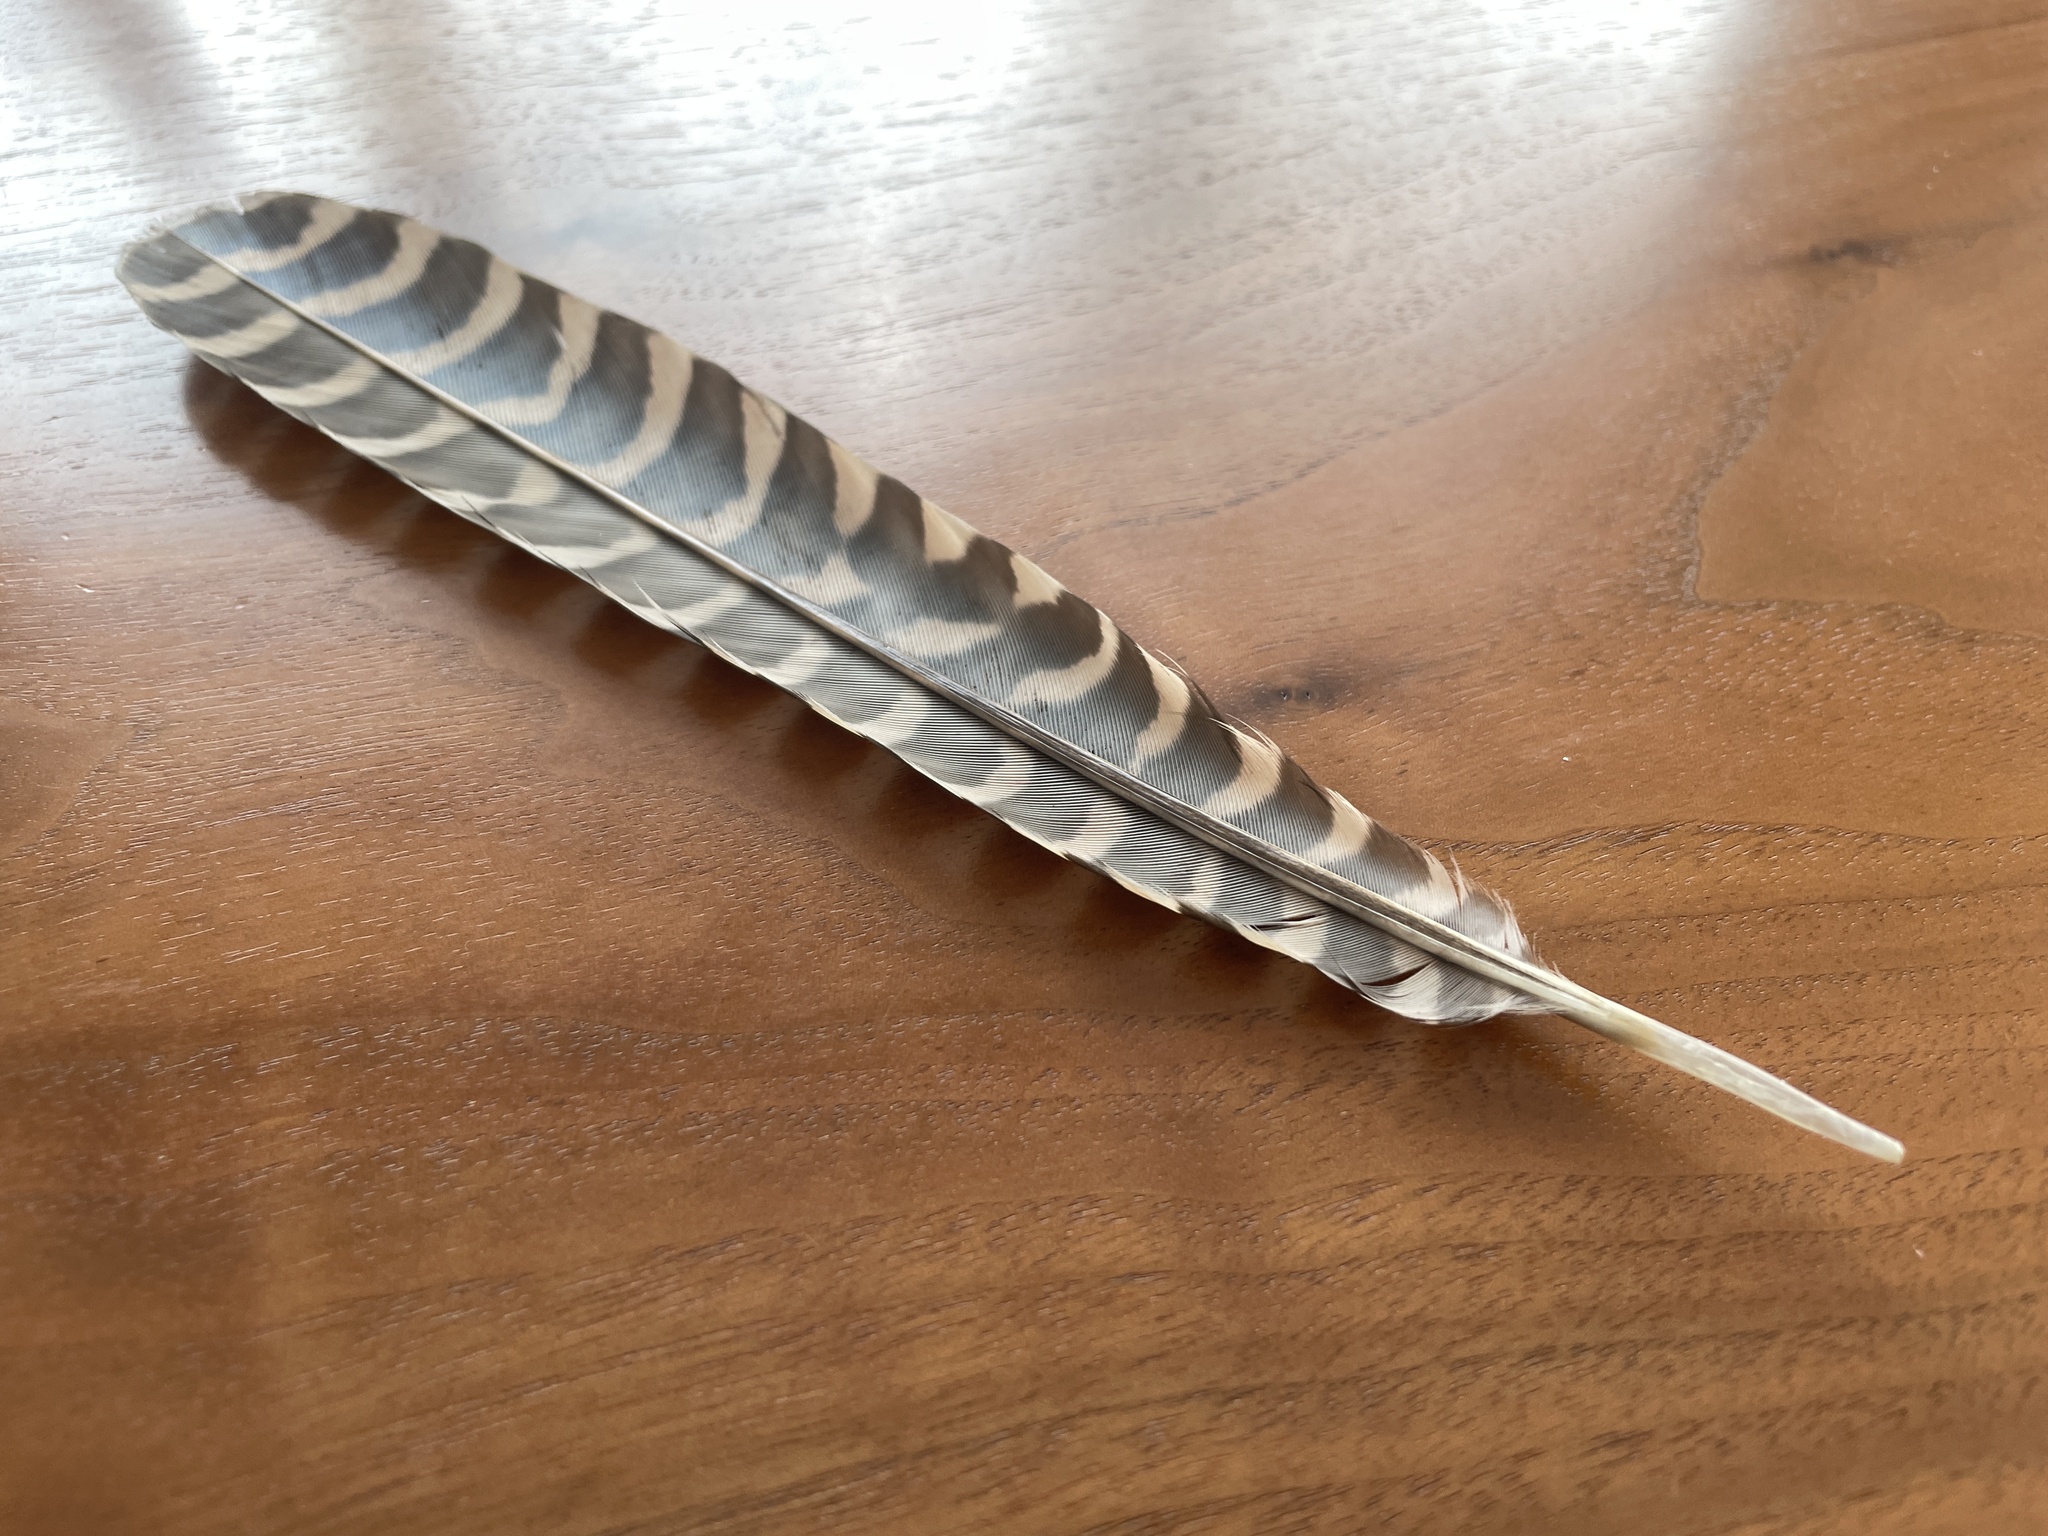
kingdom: Animalia
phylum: Chordata
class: Aves
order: Cuculiformes
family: Cuculidae
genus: Eudynamys
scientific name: Eudynamys scolopaceus
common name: Asian koel
